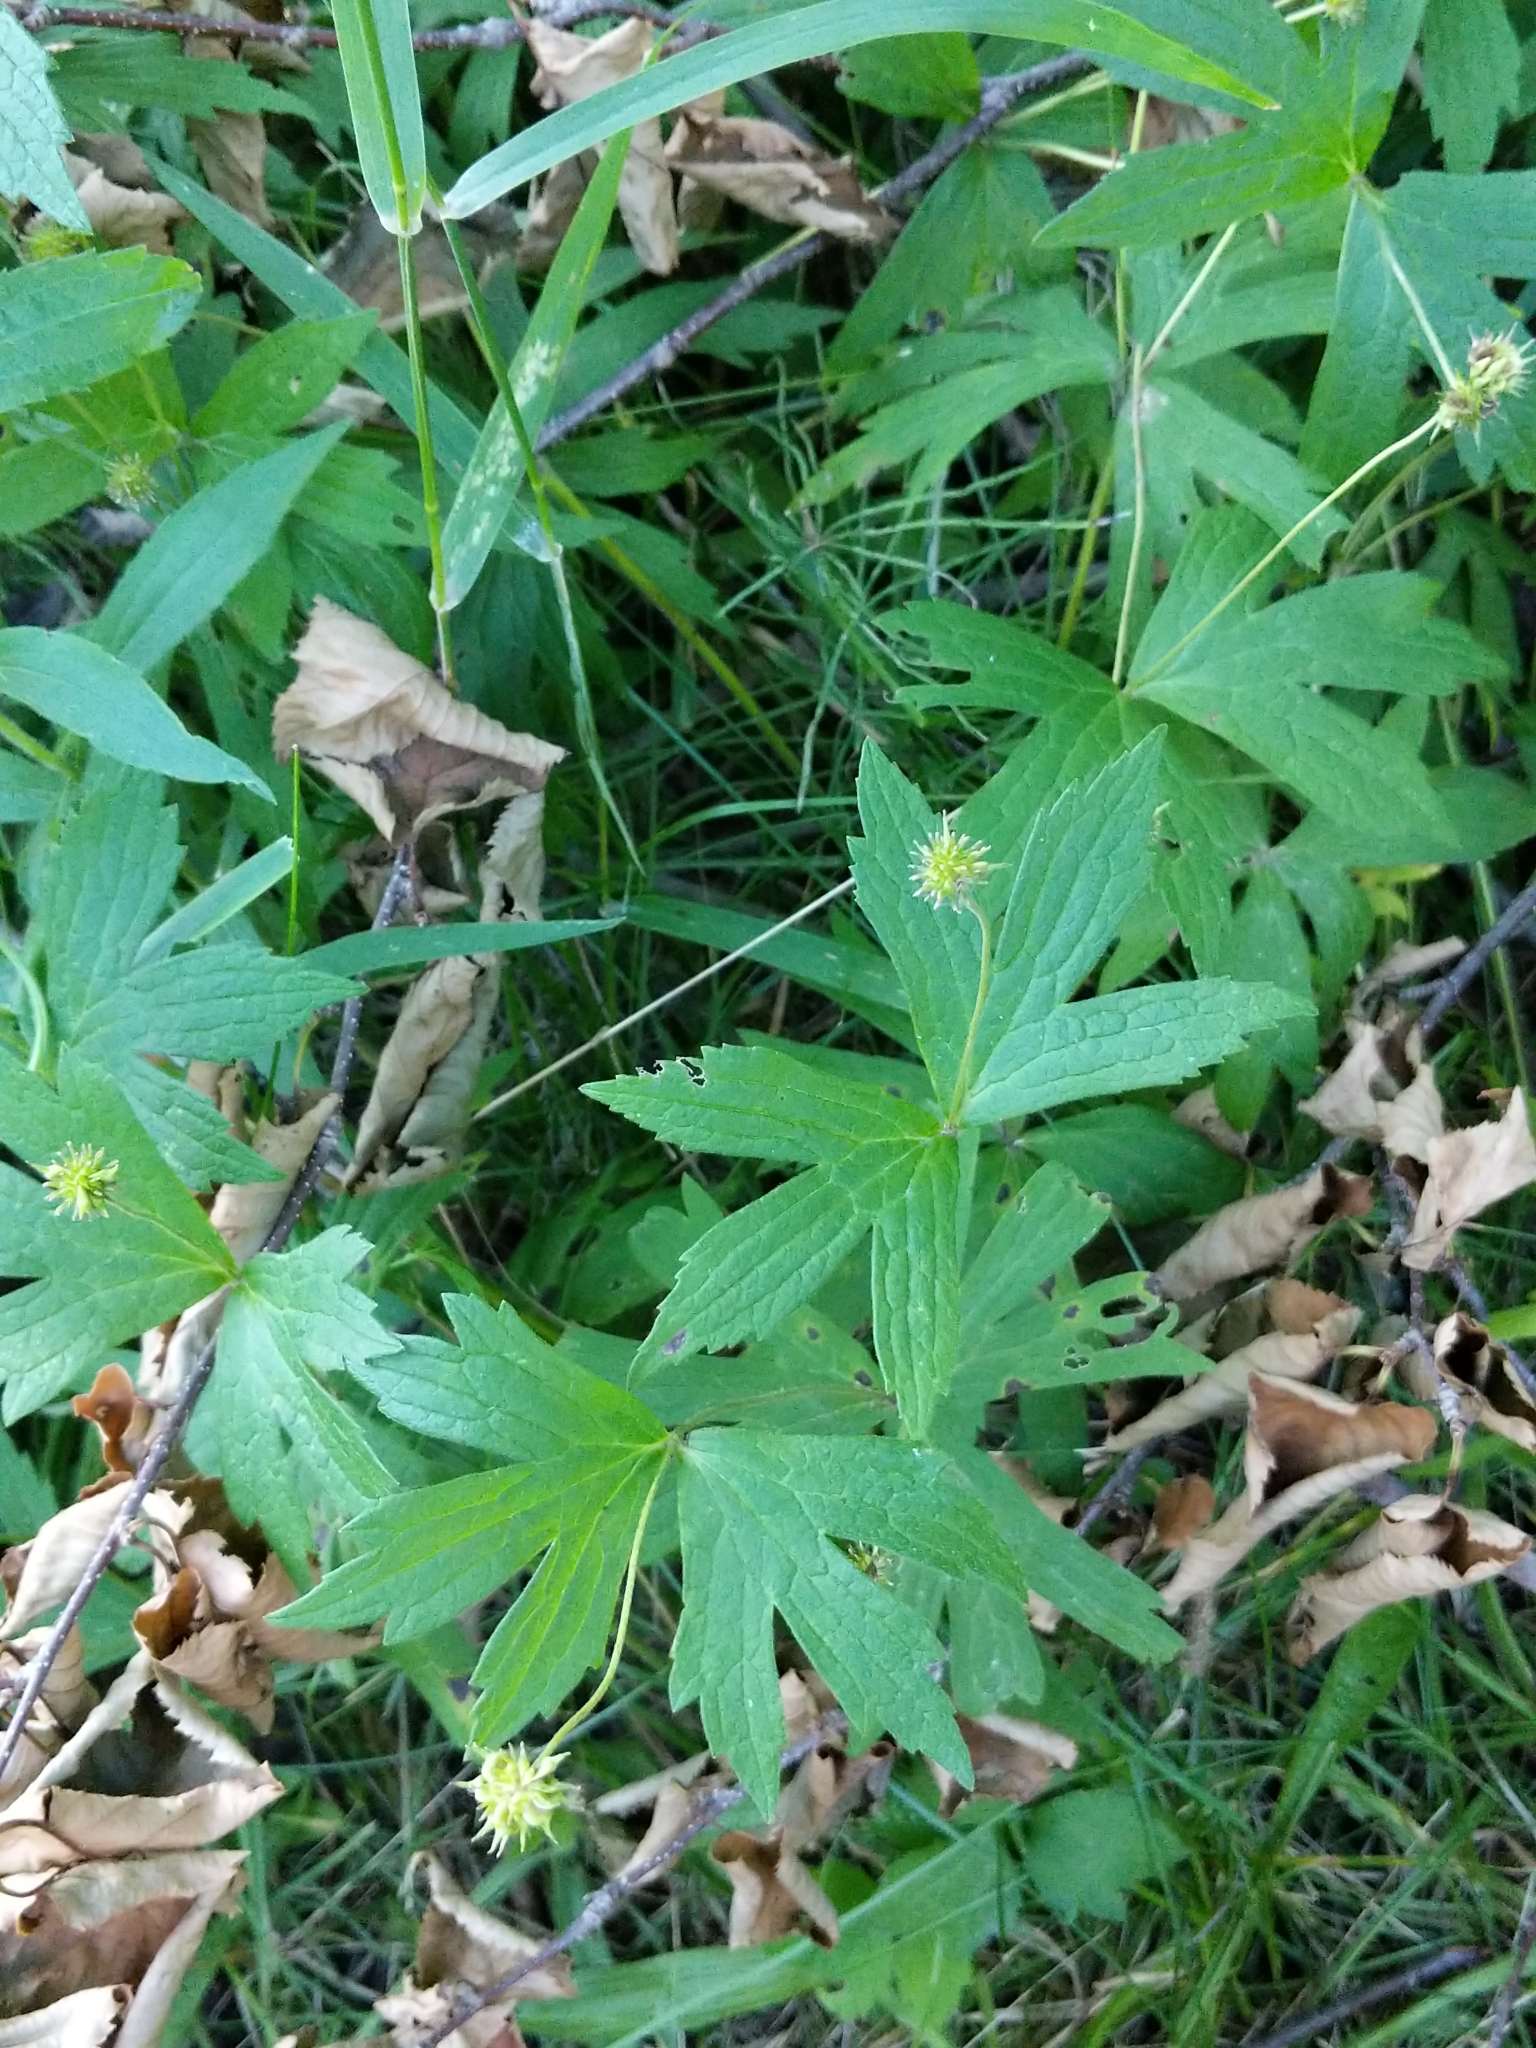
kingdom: Plantae
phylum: Tracheophyta
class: Magnoliopsida
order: Ranunculales
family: Ranunculaceae
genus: Anemonastrum
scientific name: Anemonastrum canadense
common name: Canada anemone
